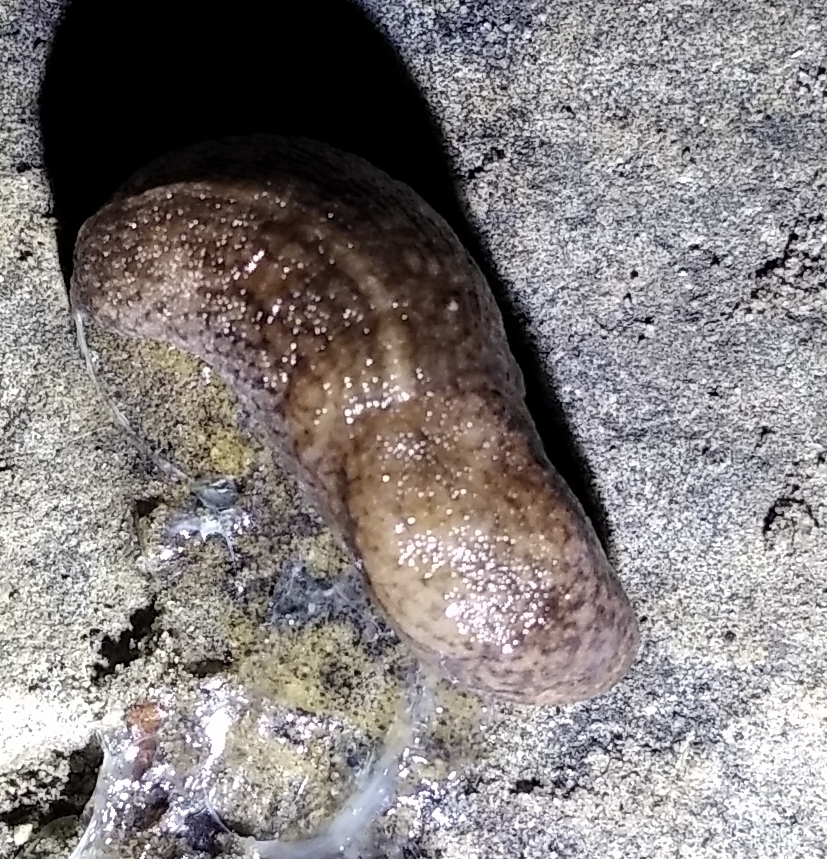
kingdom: Animalia
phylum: Mollusca
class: Gastropoda
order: Stylommatophora
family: Milacidae
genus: Tandonia
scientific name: Tandonia kusceri
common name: Keeled slug
